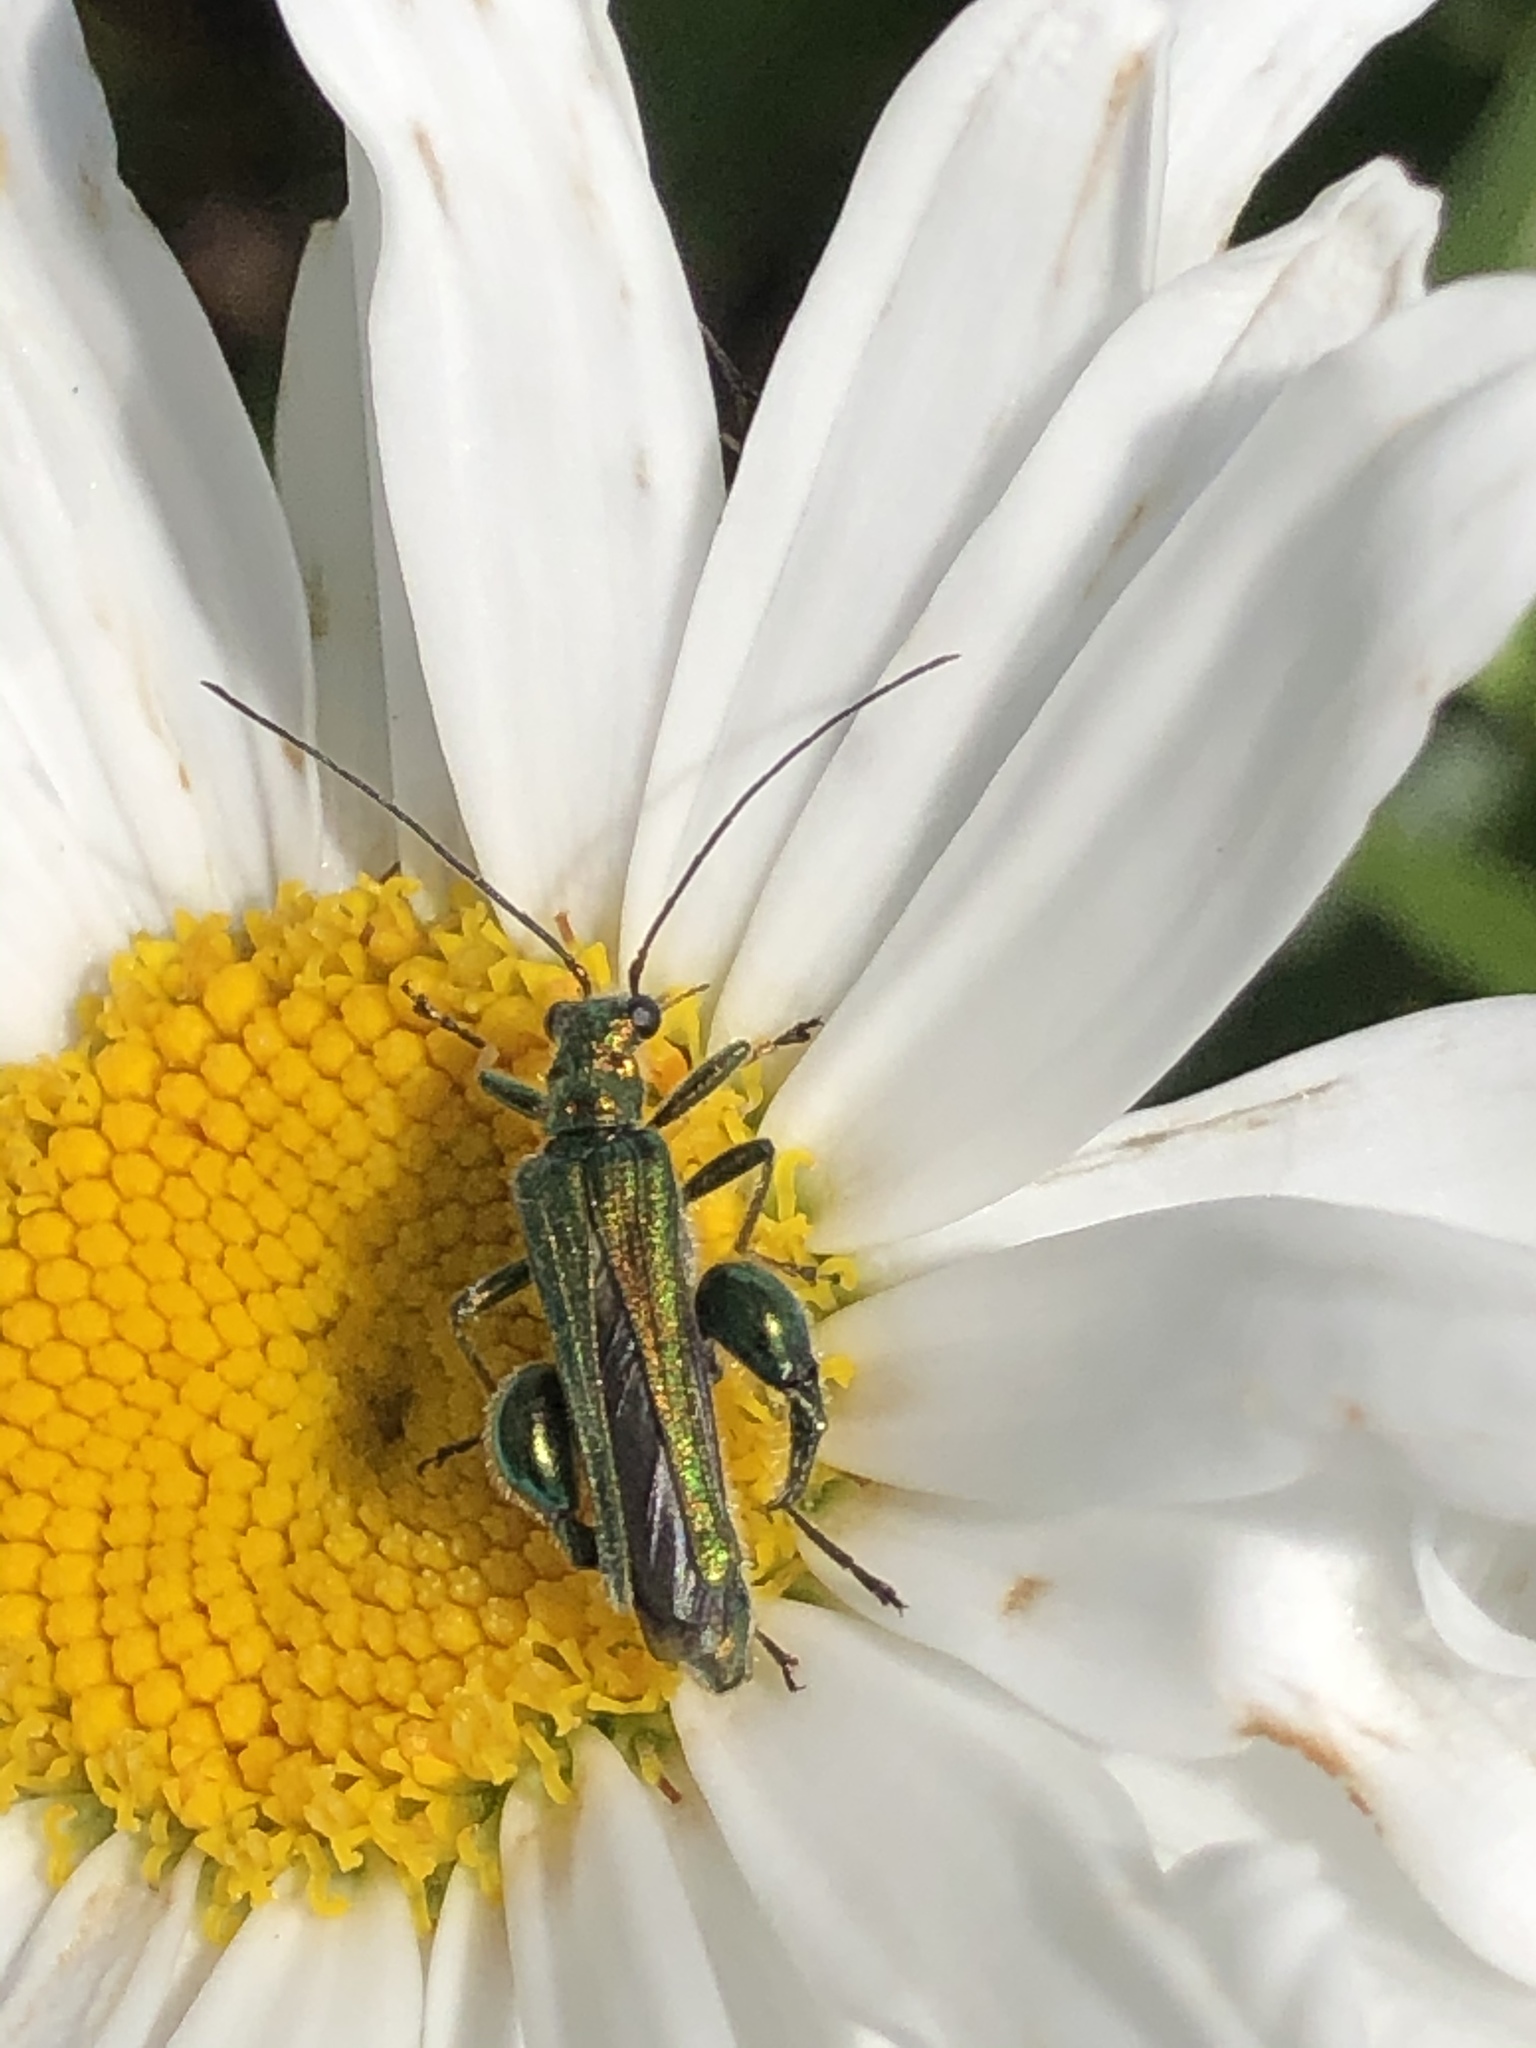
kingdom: Animalia
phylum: Arthropoda
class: Insecta
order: Coleoptera
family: Oedemeridae
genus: Oedemera
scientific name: Oedemera nobilis
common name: Swollen-thighed beetle
